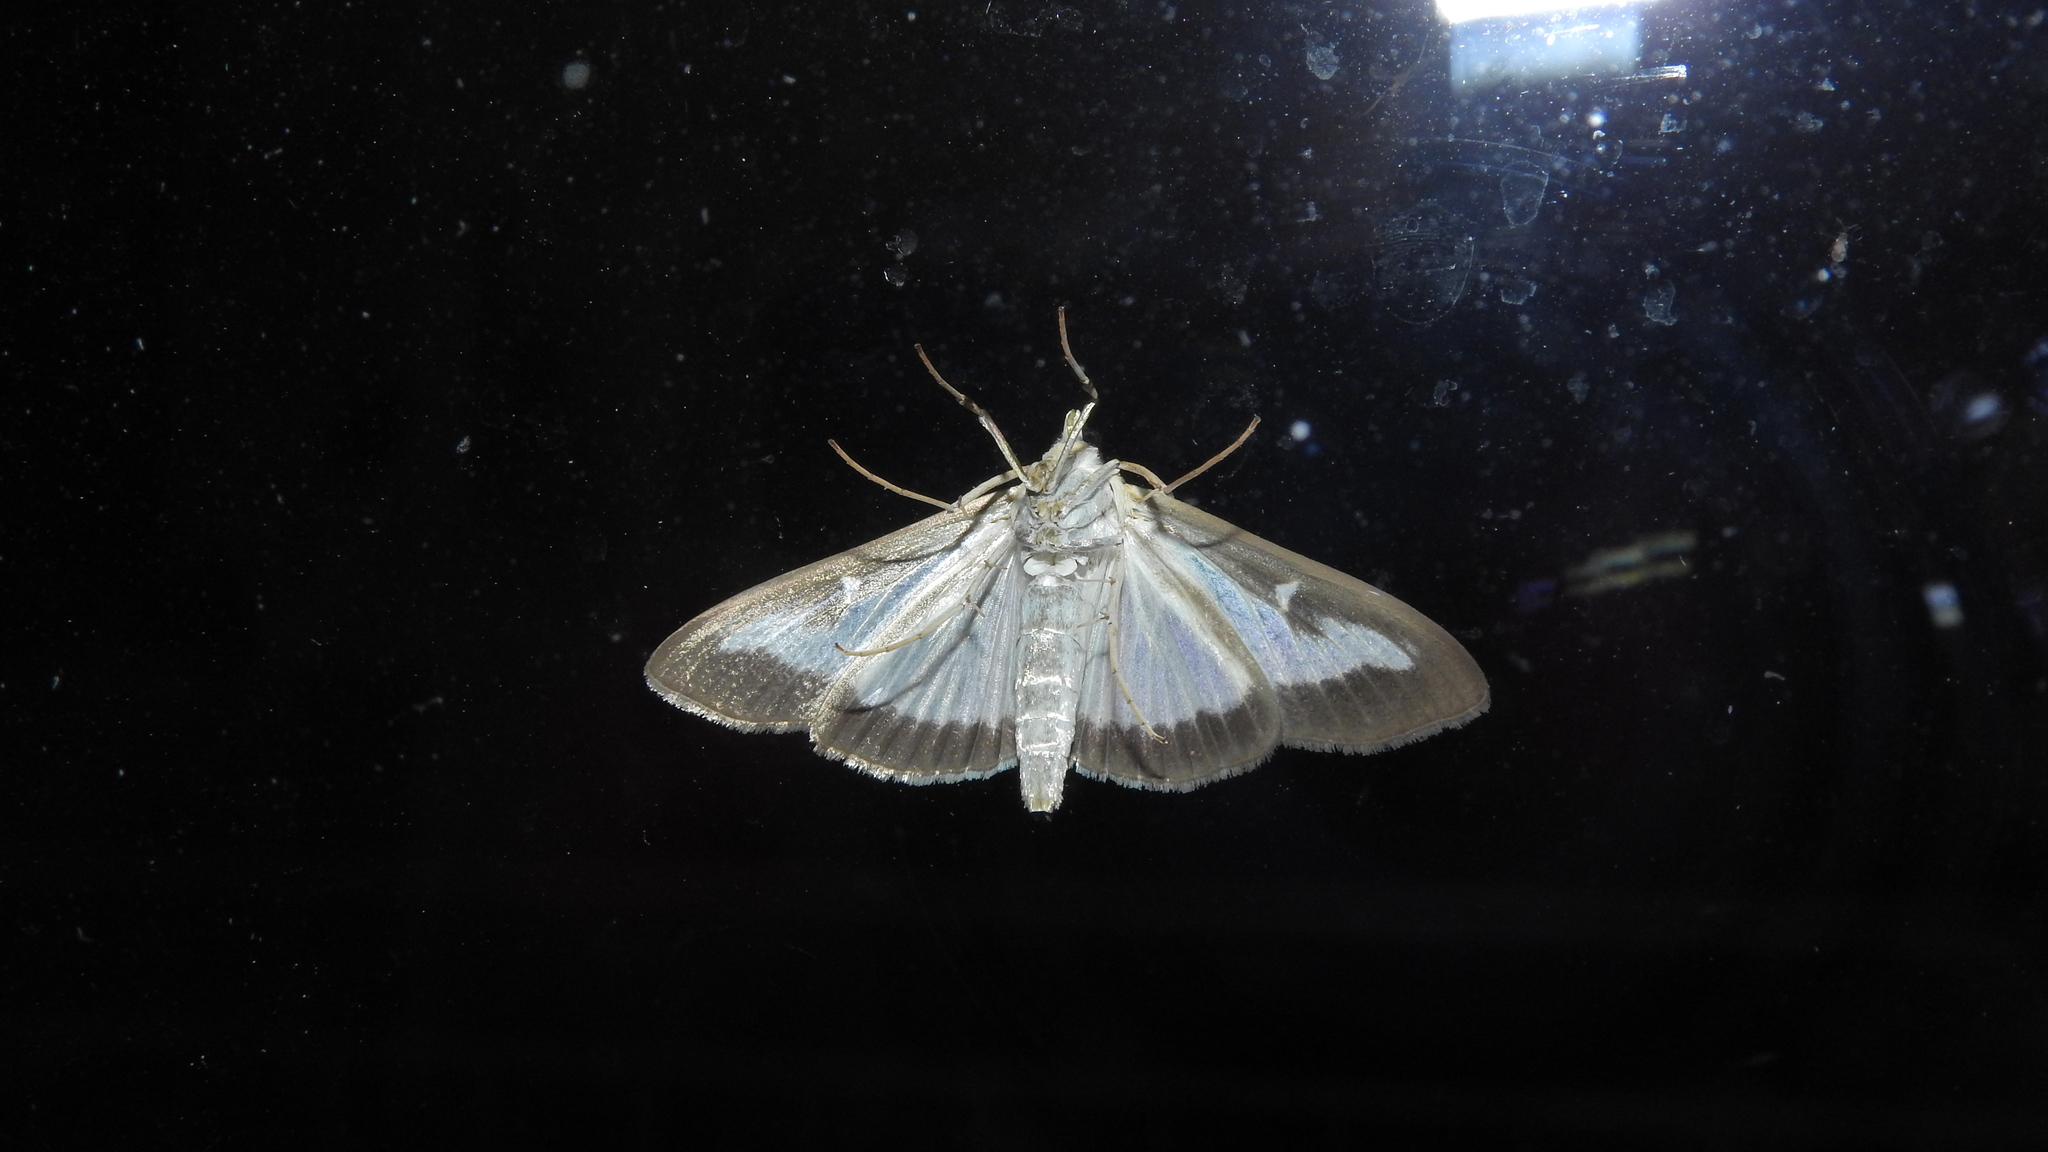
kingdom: Animalia
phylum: Arthropoda
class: Insecta
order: Lepidoptera
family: Crambidae
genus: Cydalima
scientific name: Cydalima perspectalis
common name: Box tree moth
